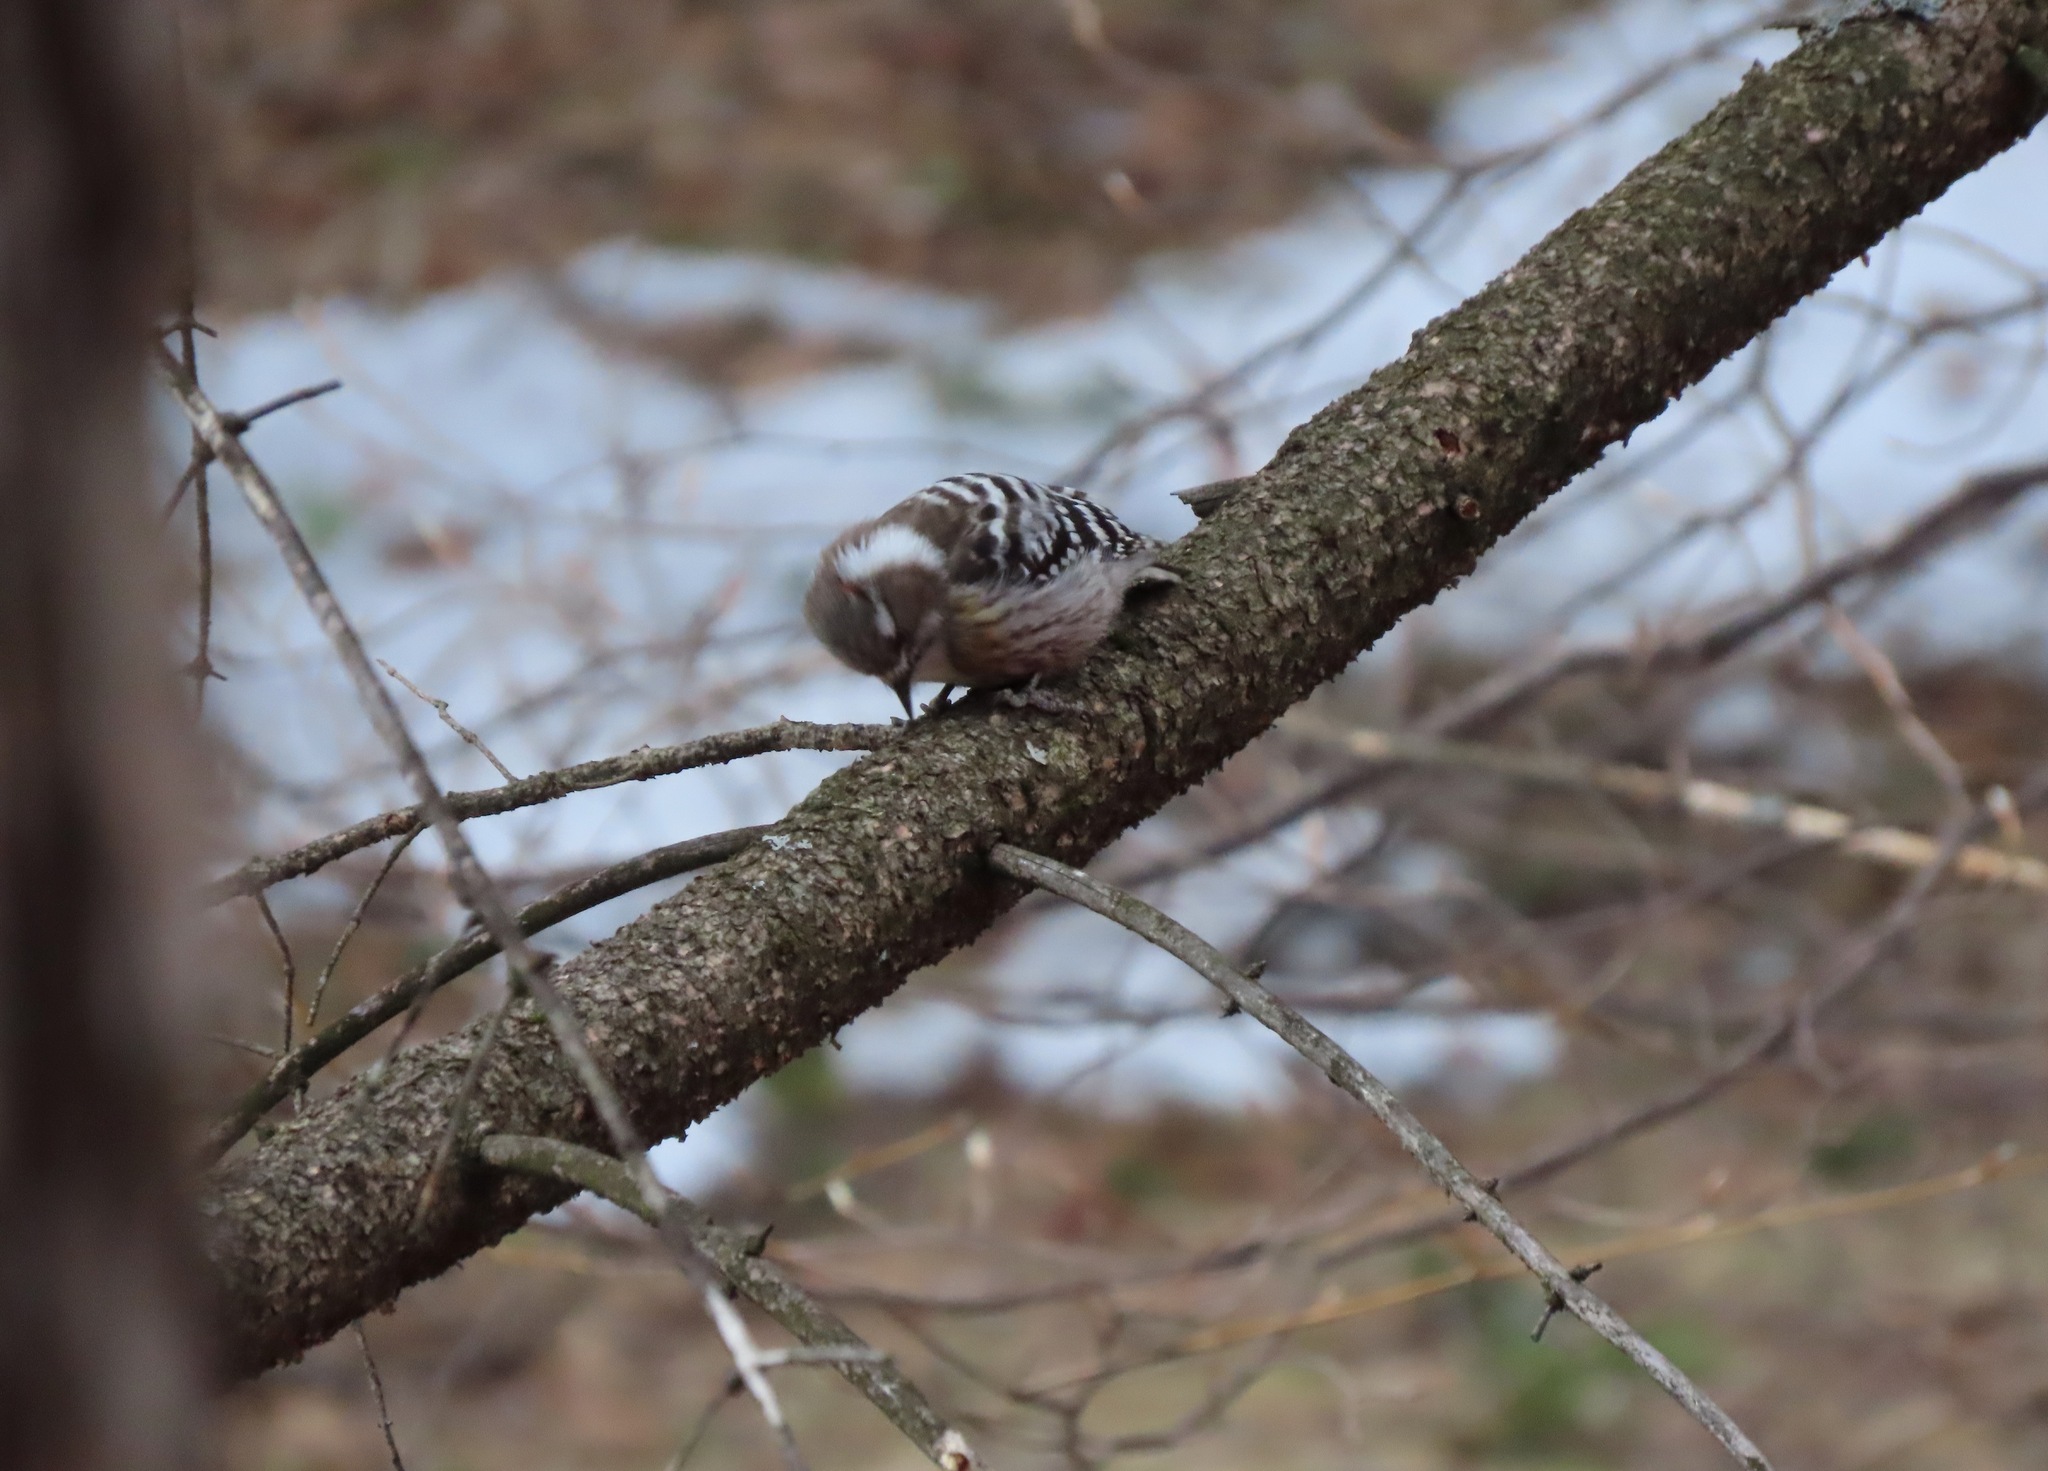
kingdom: Animalia
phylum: Chordata
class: Aves
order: Piciformes
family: Picidae
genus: Yungipicus
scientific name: Yungipicus kizuki
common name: Japanese pygmy woodpecker
